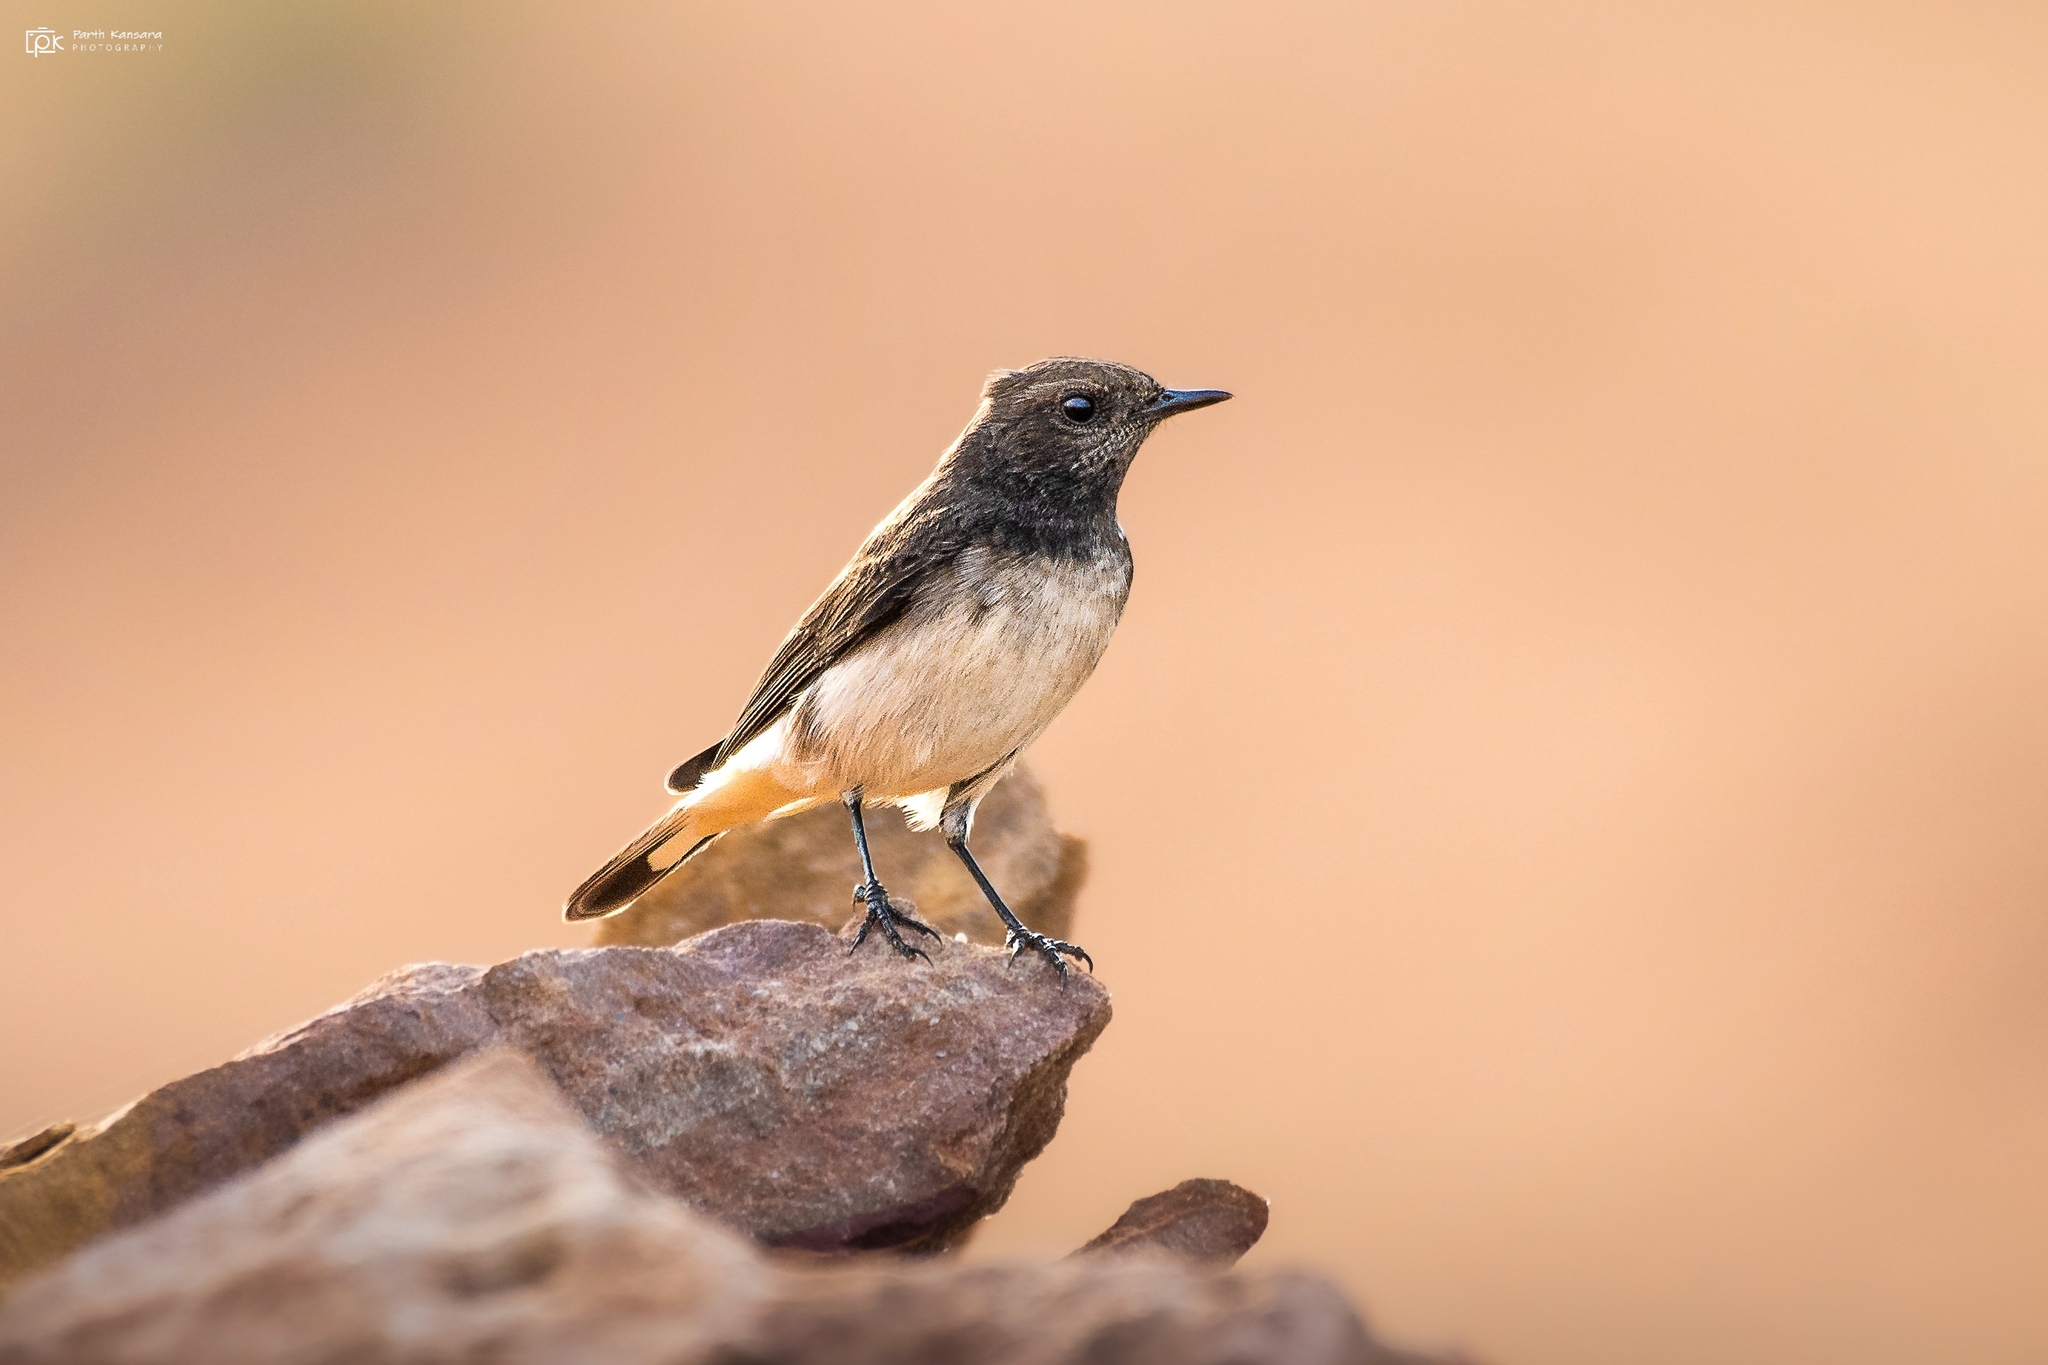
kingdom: Animalia
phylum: Chordata
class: Aves
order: Passeriformes
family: Muscicapidae
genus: Oenanthe
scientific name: Oenanthe picata
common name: Variable wheatear
